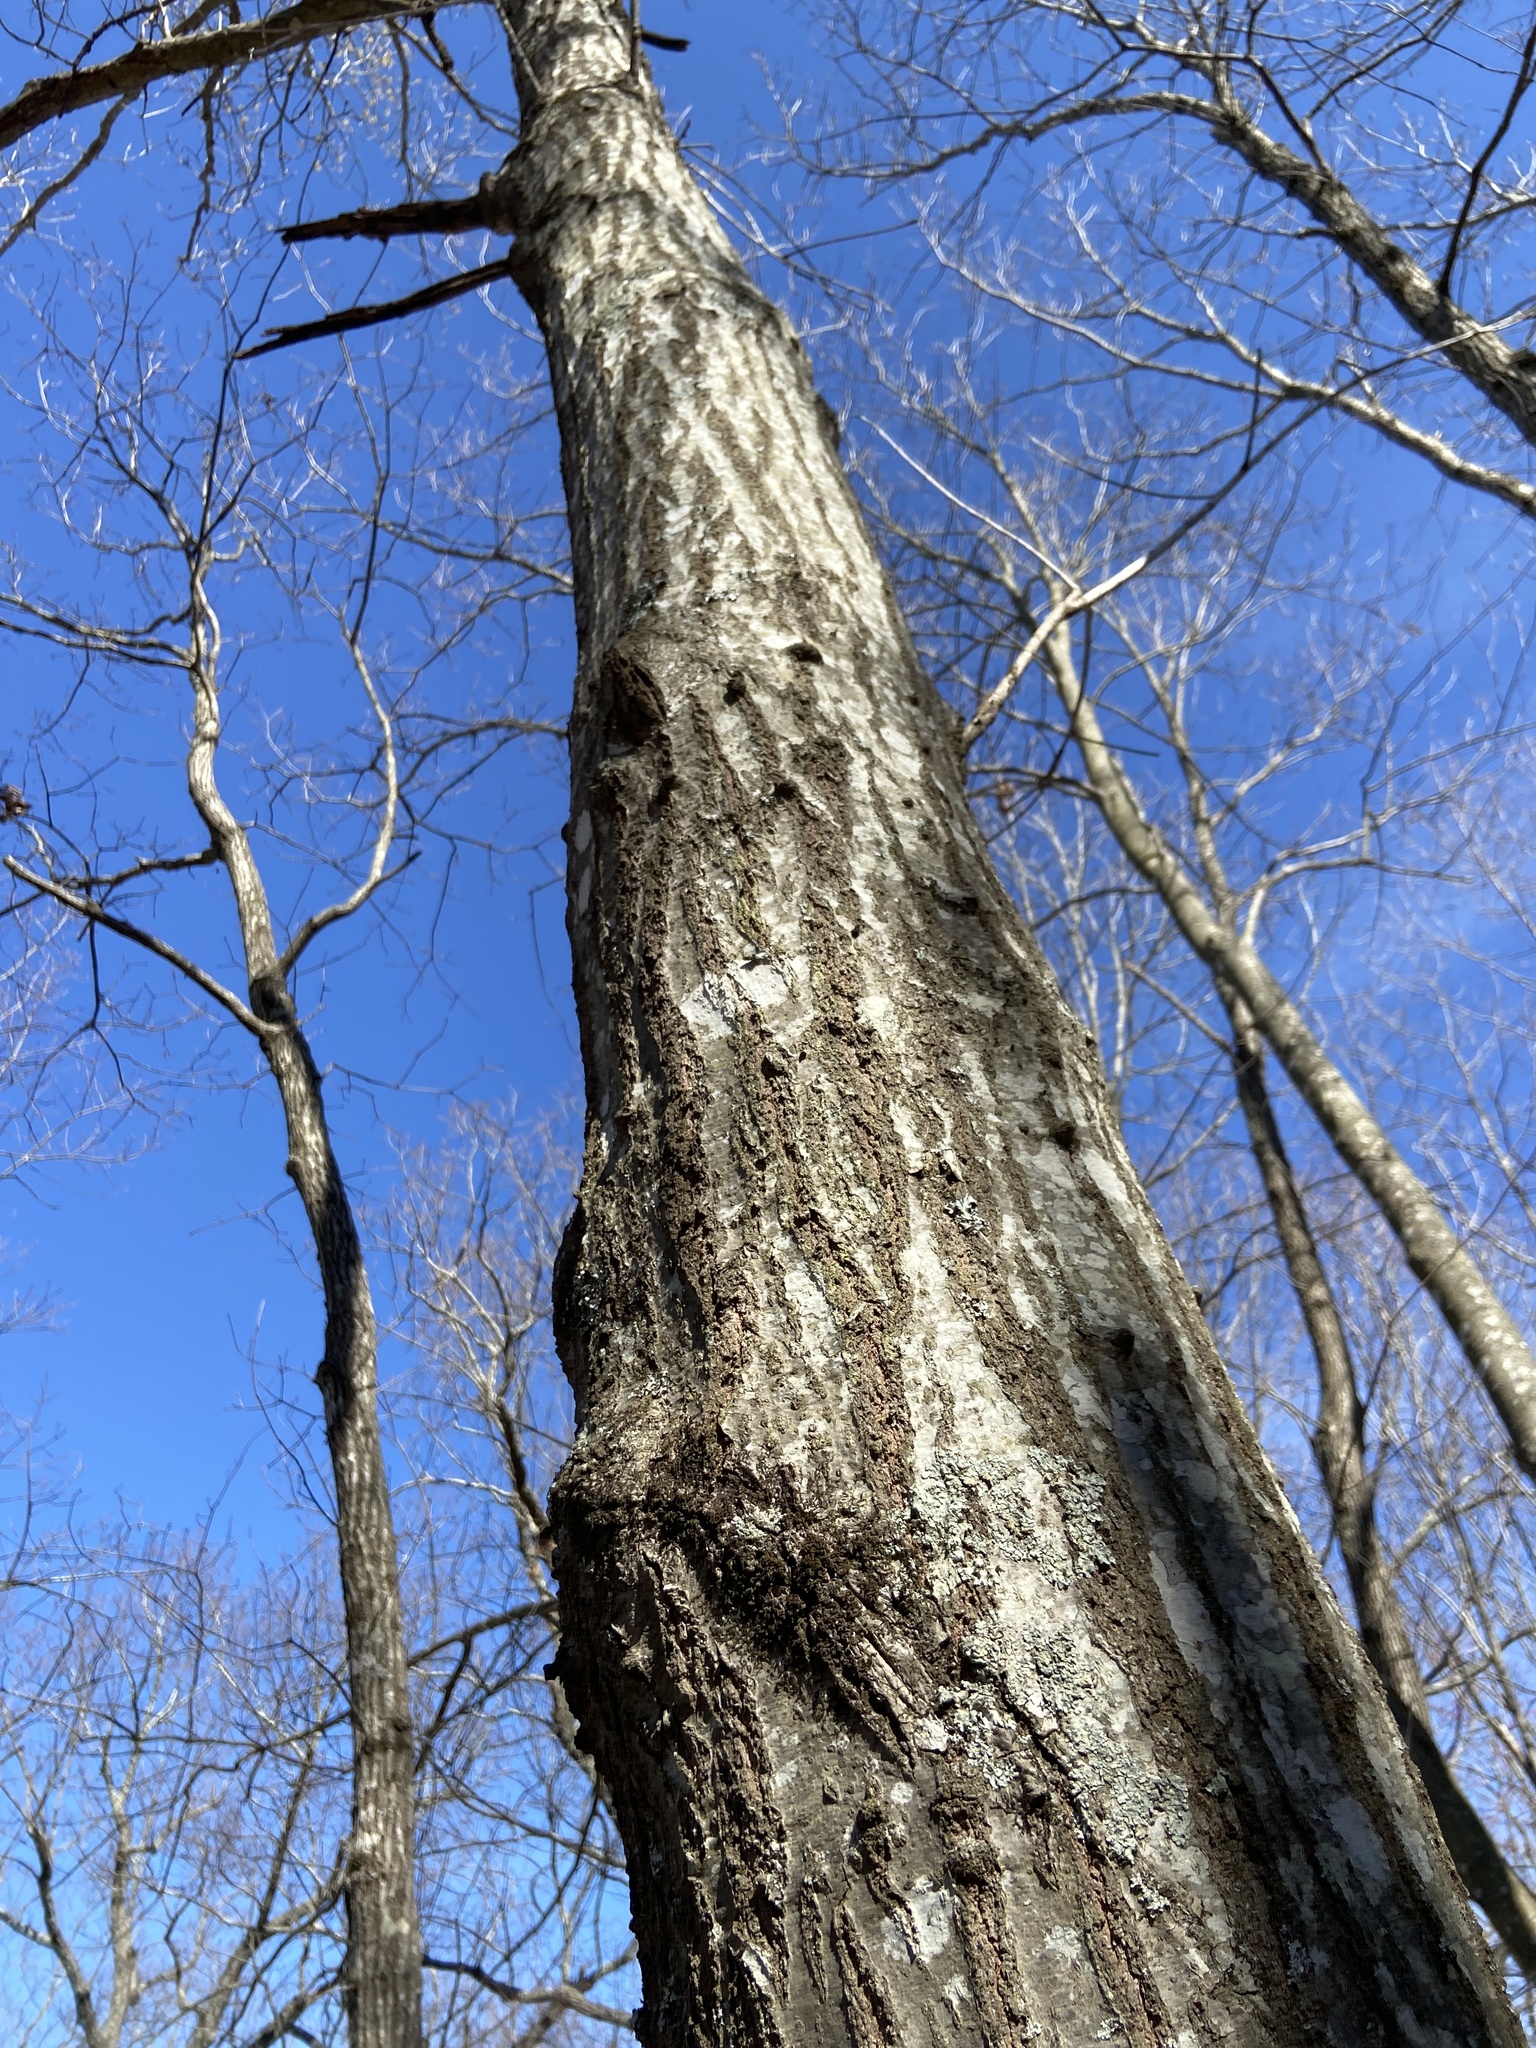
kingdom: Plantae
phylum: Tracheophyta
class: Magnoliopsida
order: Fagales
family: Fagaceae
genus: Quercus
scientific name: Quercus coccinea
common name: Scarlet oak
